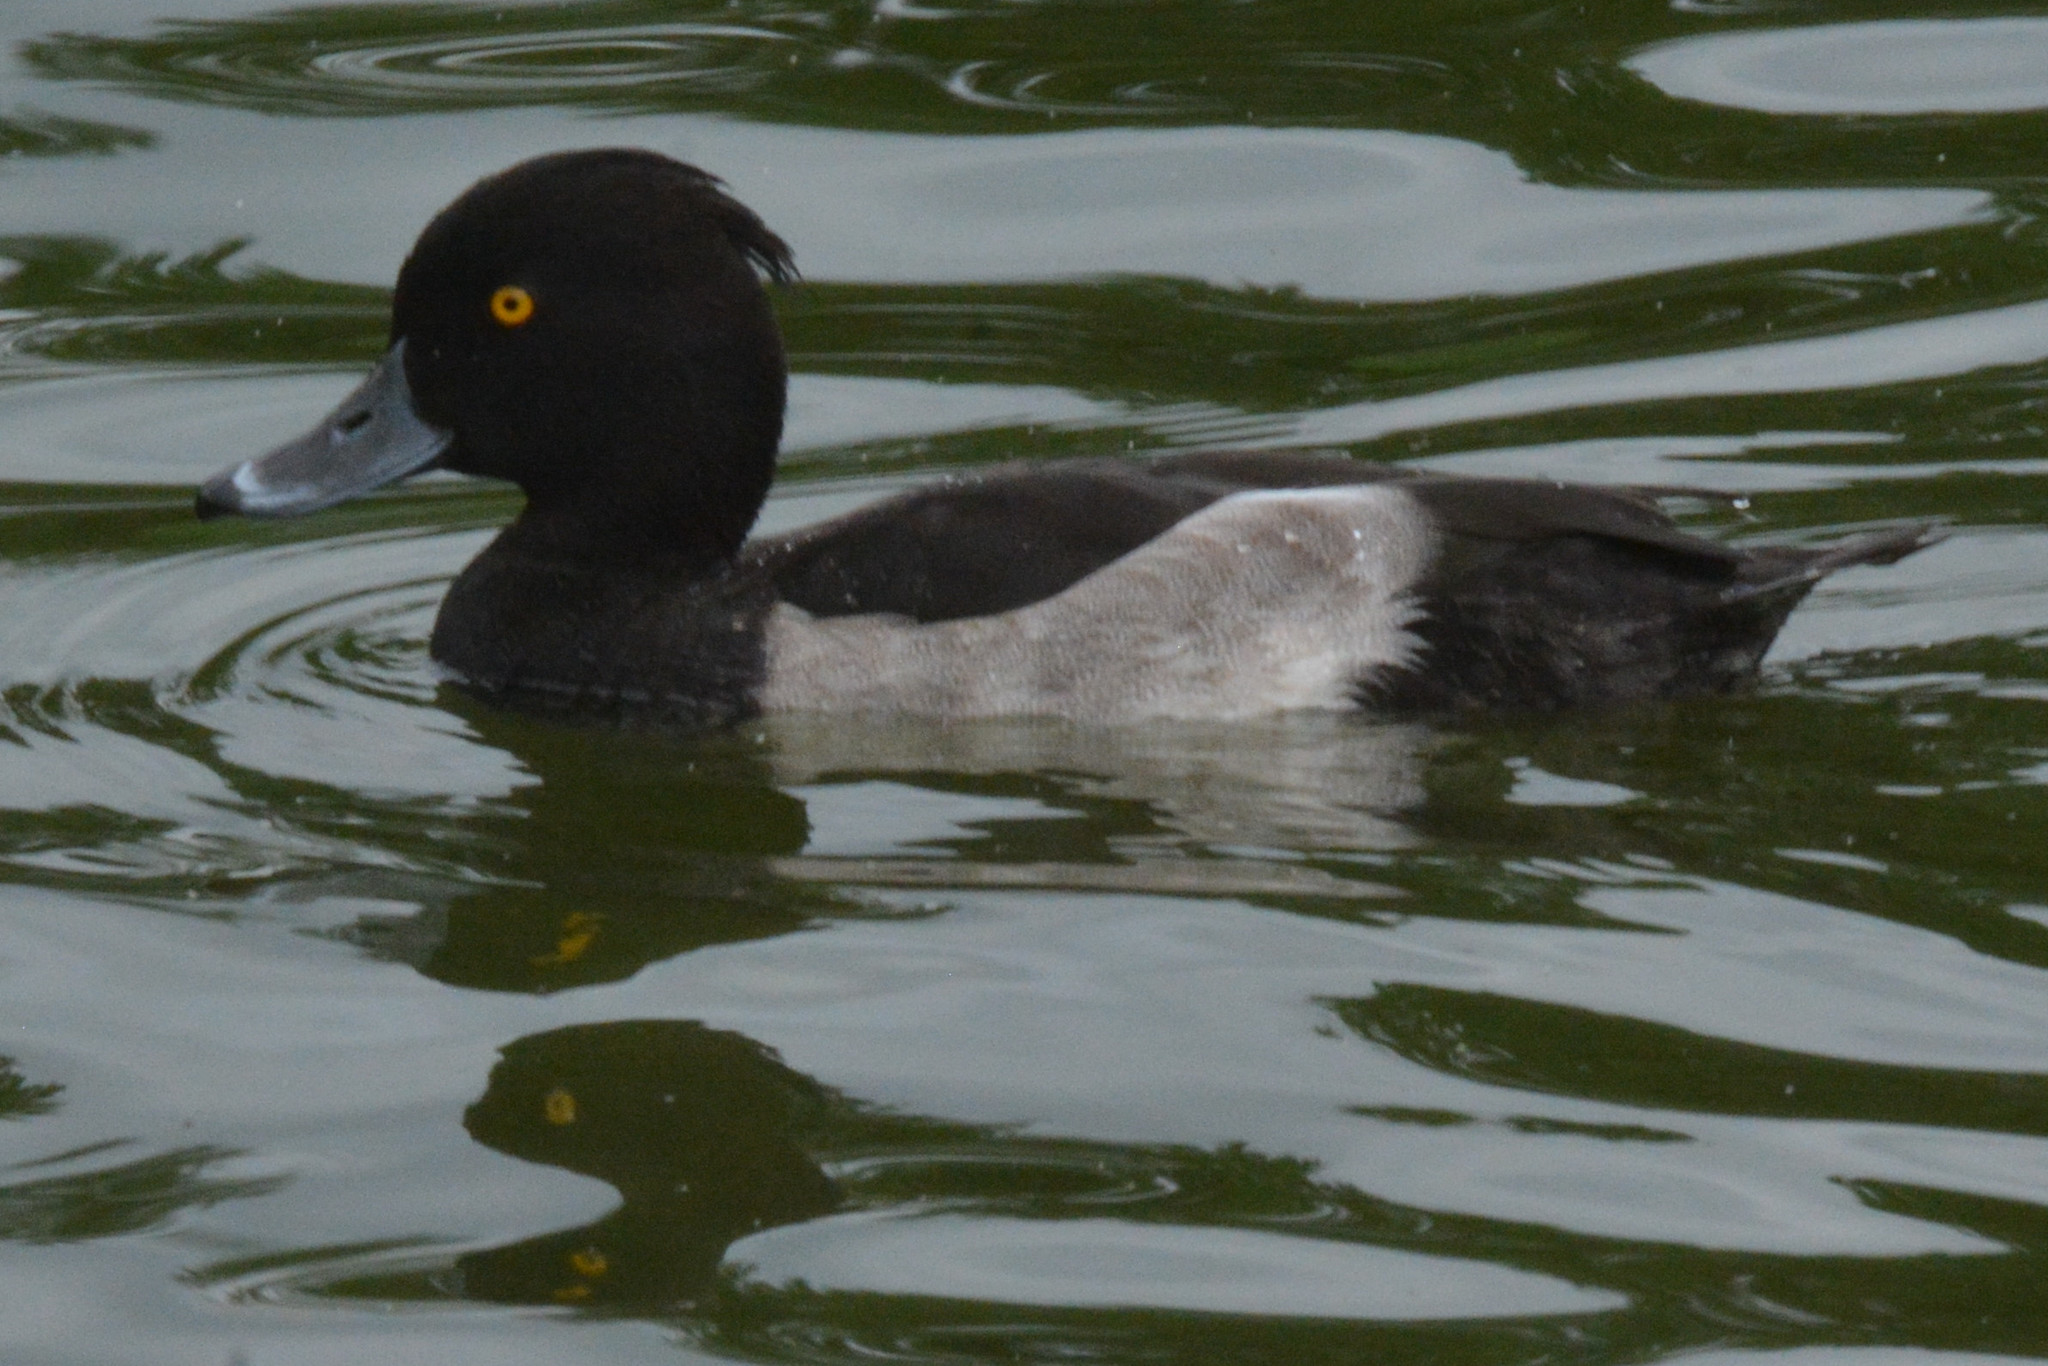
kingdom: Animalia
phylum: Chordata
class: Aves
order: Anseriformes
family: Anatidae
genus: Aythya
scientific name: Aythya fuligula
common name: Tufted duck
